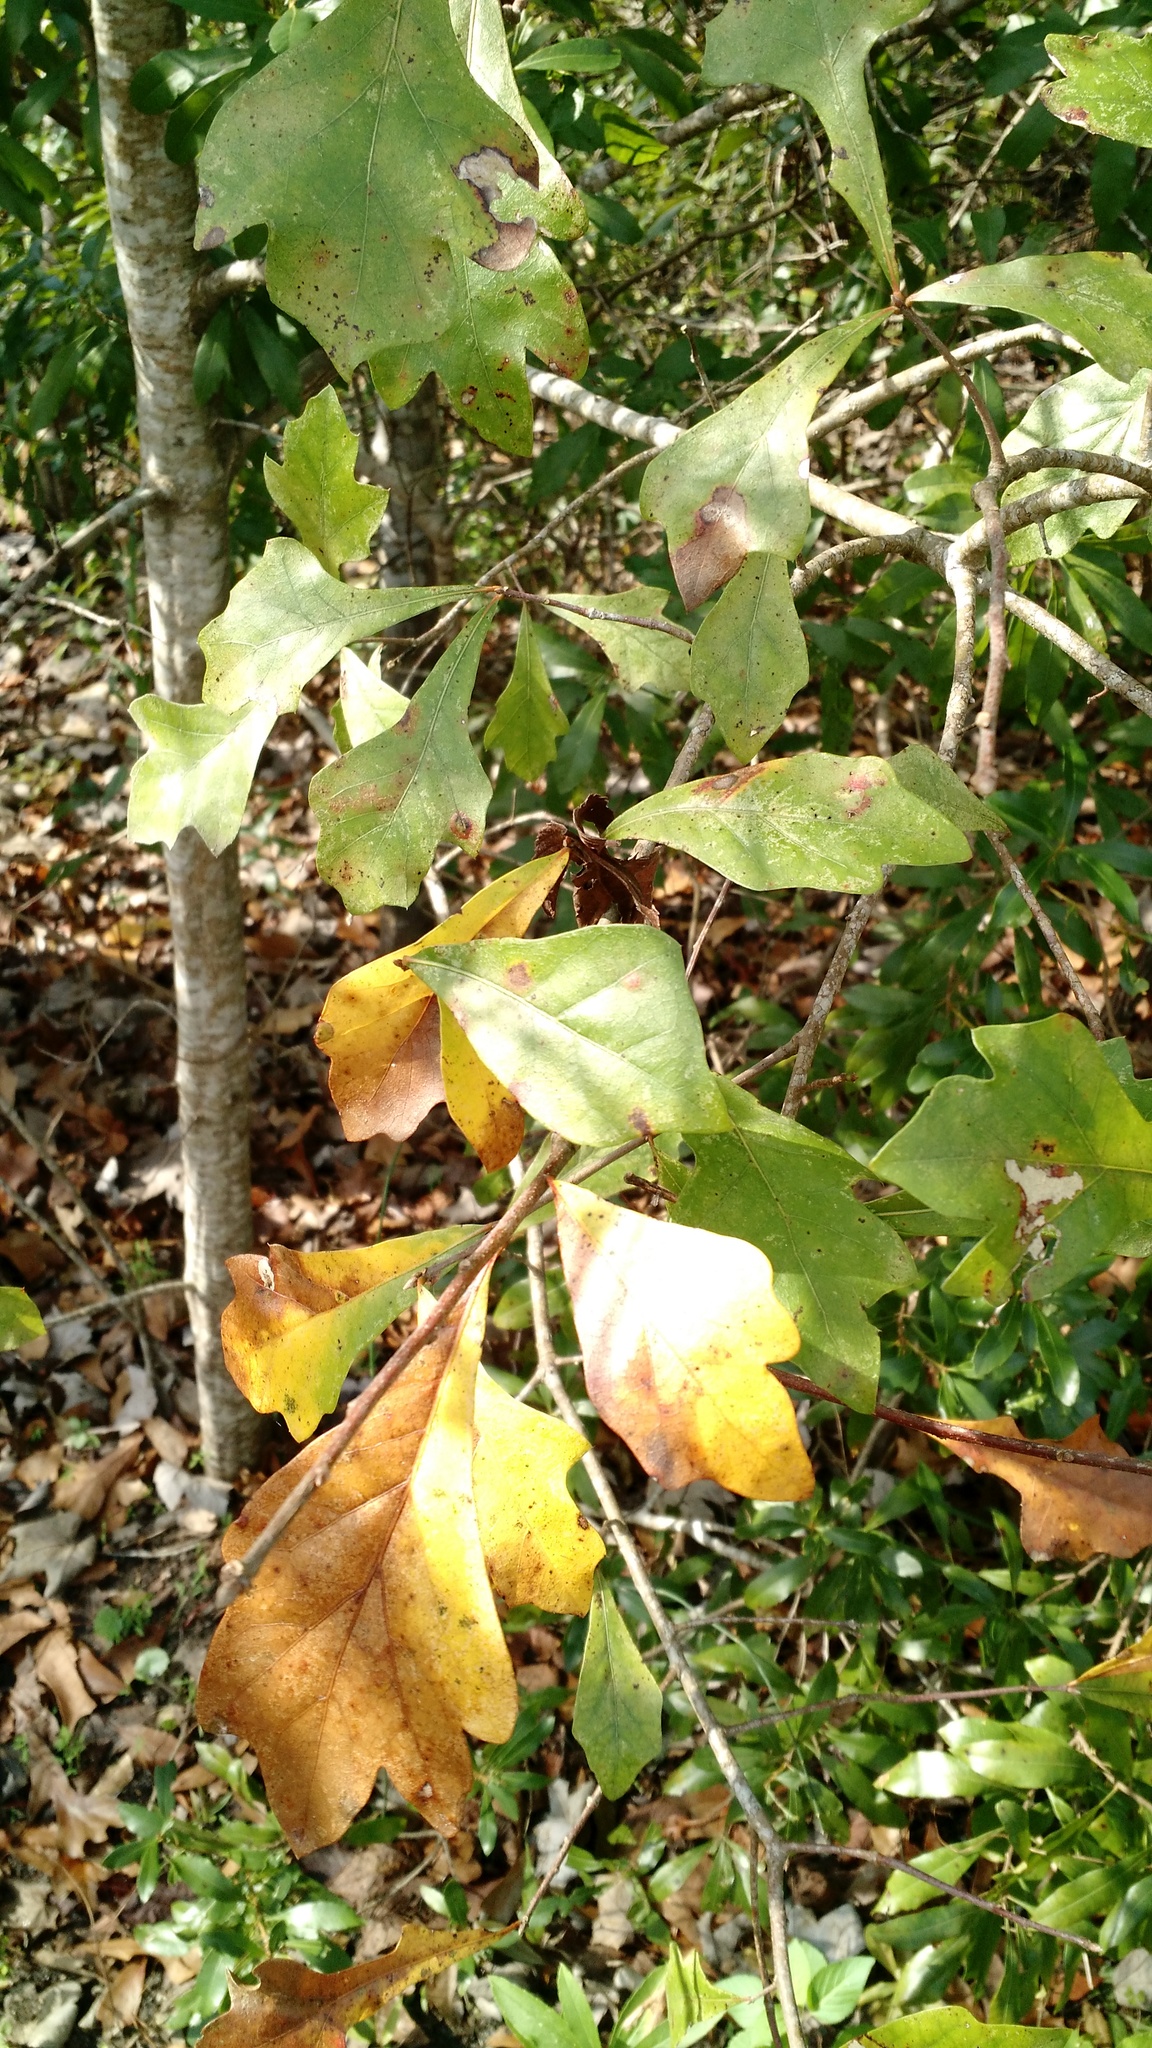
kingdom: Plantae
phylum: Tracheophyta
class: Magnoliopsida
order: Fagales
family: Fagaceae
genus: Quercus
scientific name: Quercus nigra
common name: Water oak
